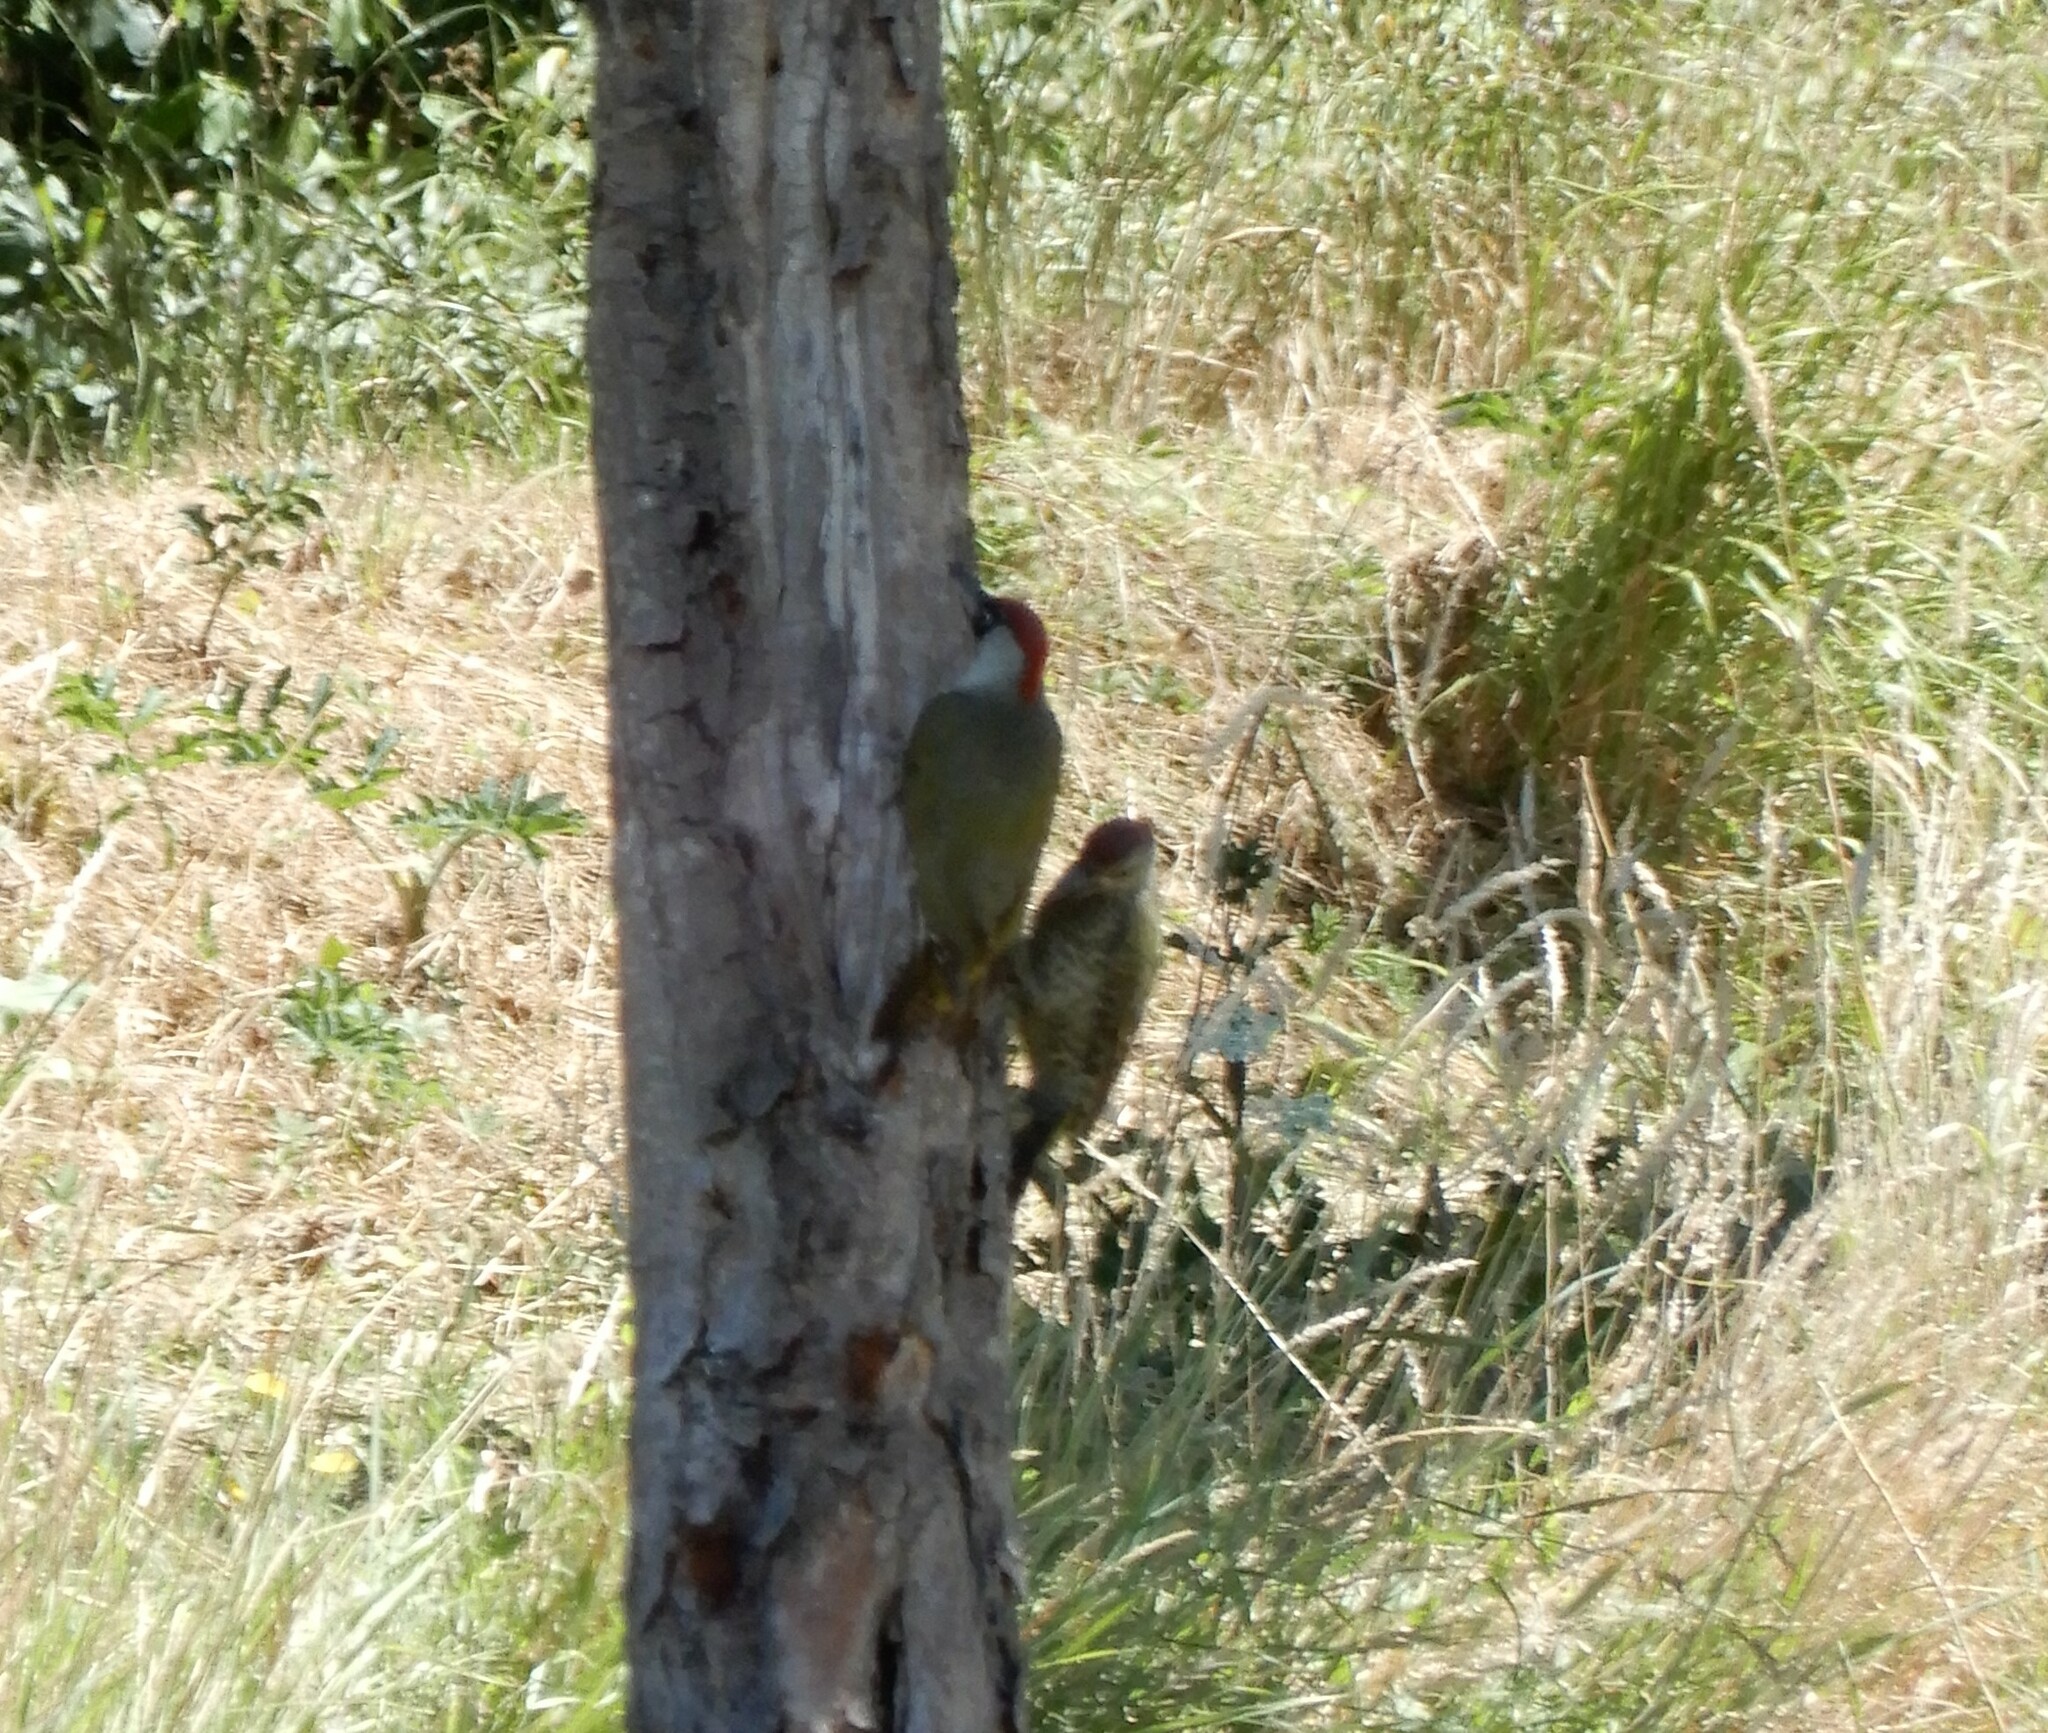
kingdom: Animalia
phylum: Chordata
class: Aves
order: Piciformes
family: Picidae
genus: Picus
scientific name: Picus viridis
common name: European green woodpecker
